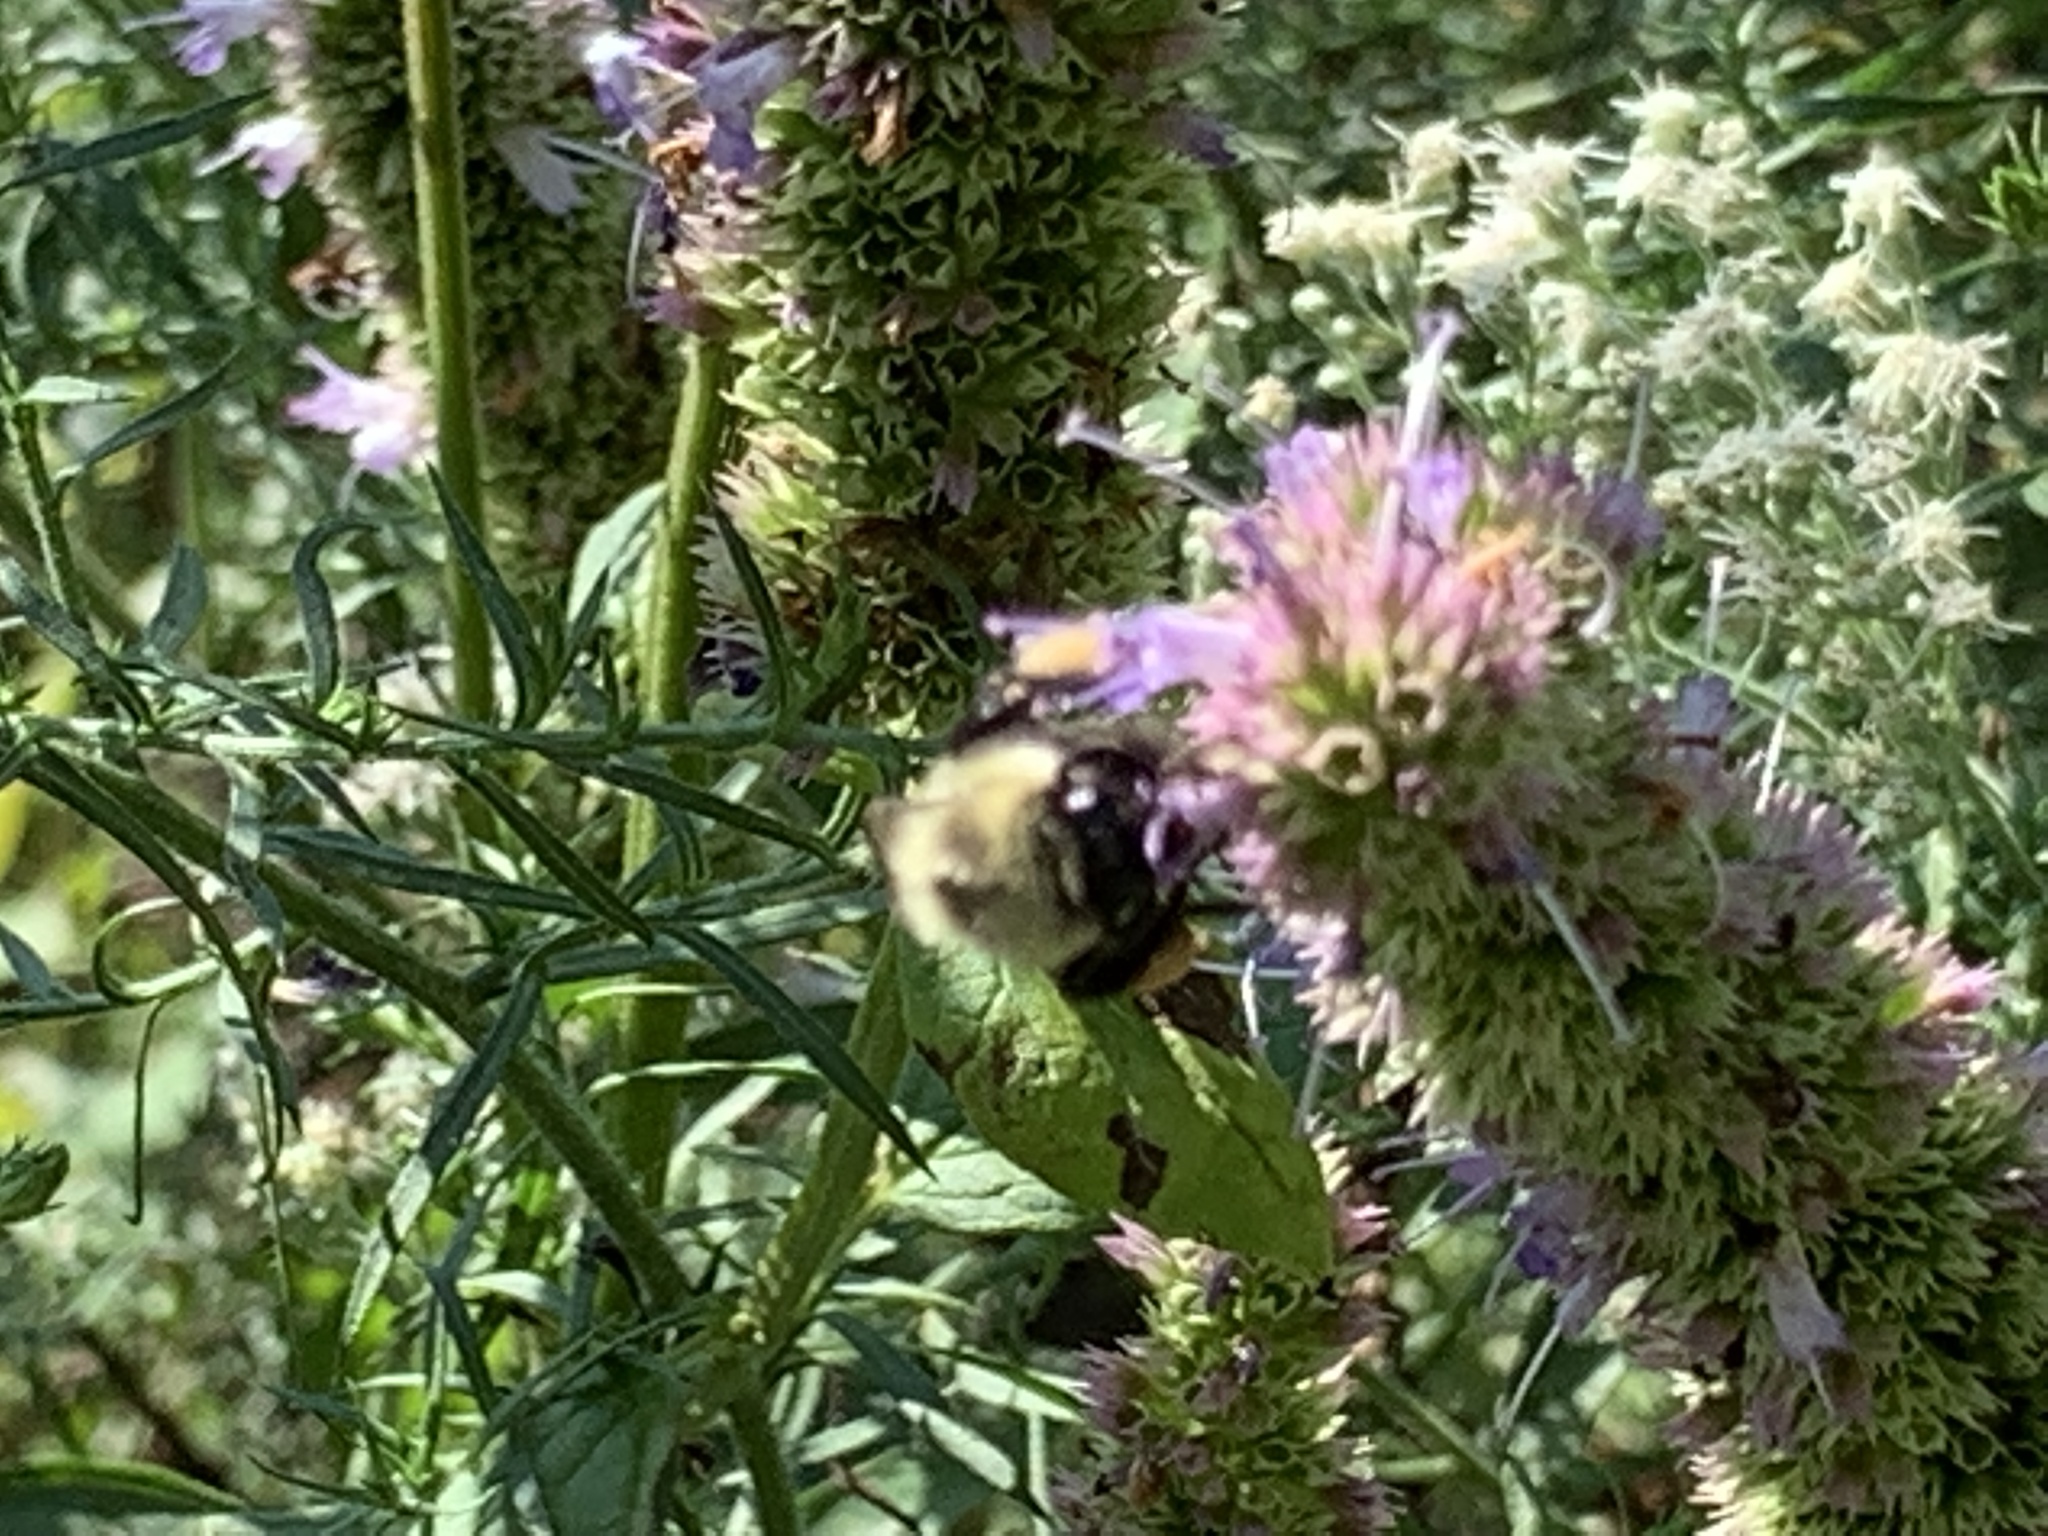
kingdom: Animalia
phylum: Arthropoda
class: Insecta
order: Hymenoptera
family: Apidae
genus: Bombus
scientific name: Bombus impatiens
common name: Common eastern bumble bee
